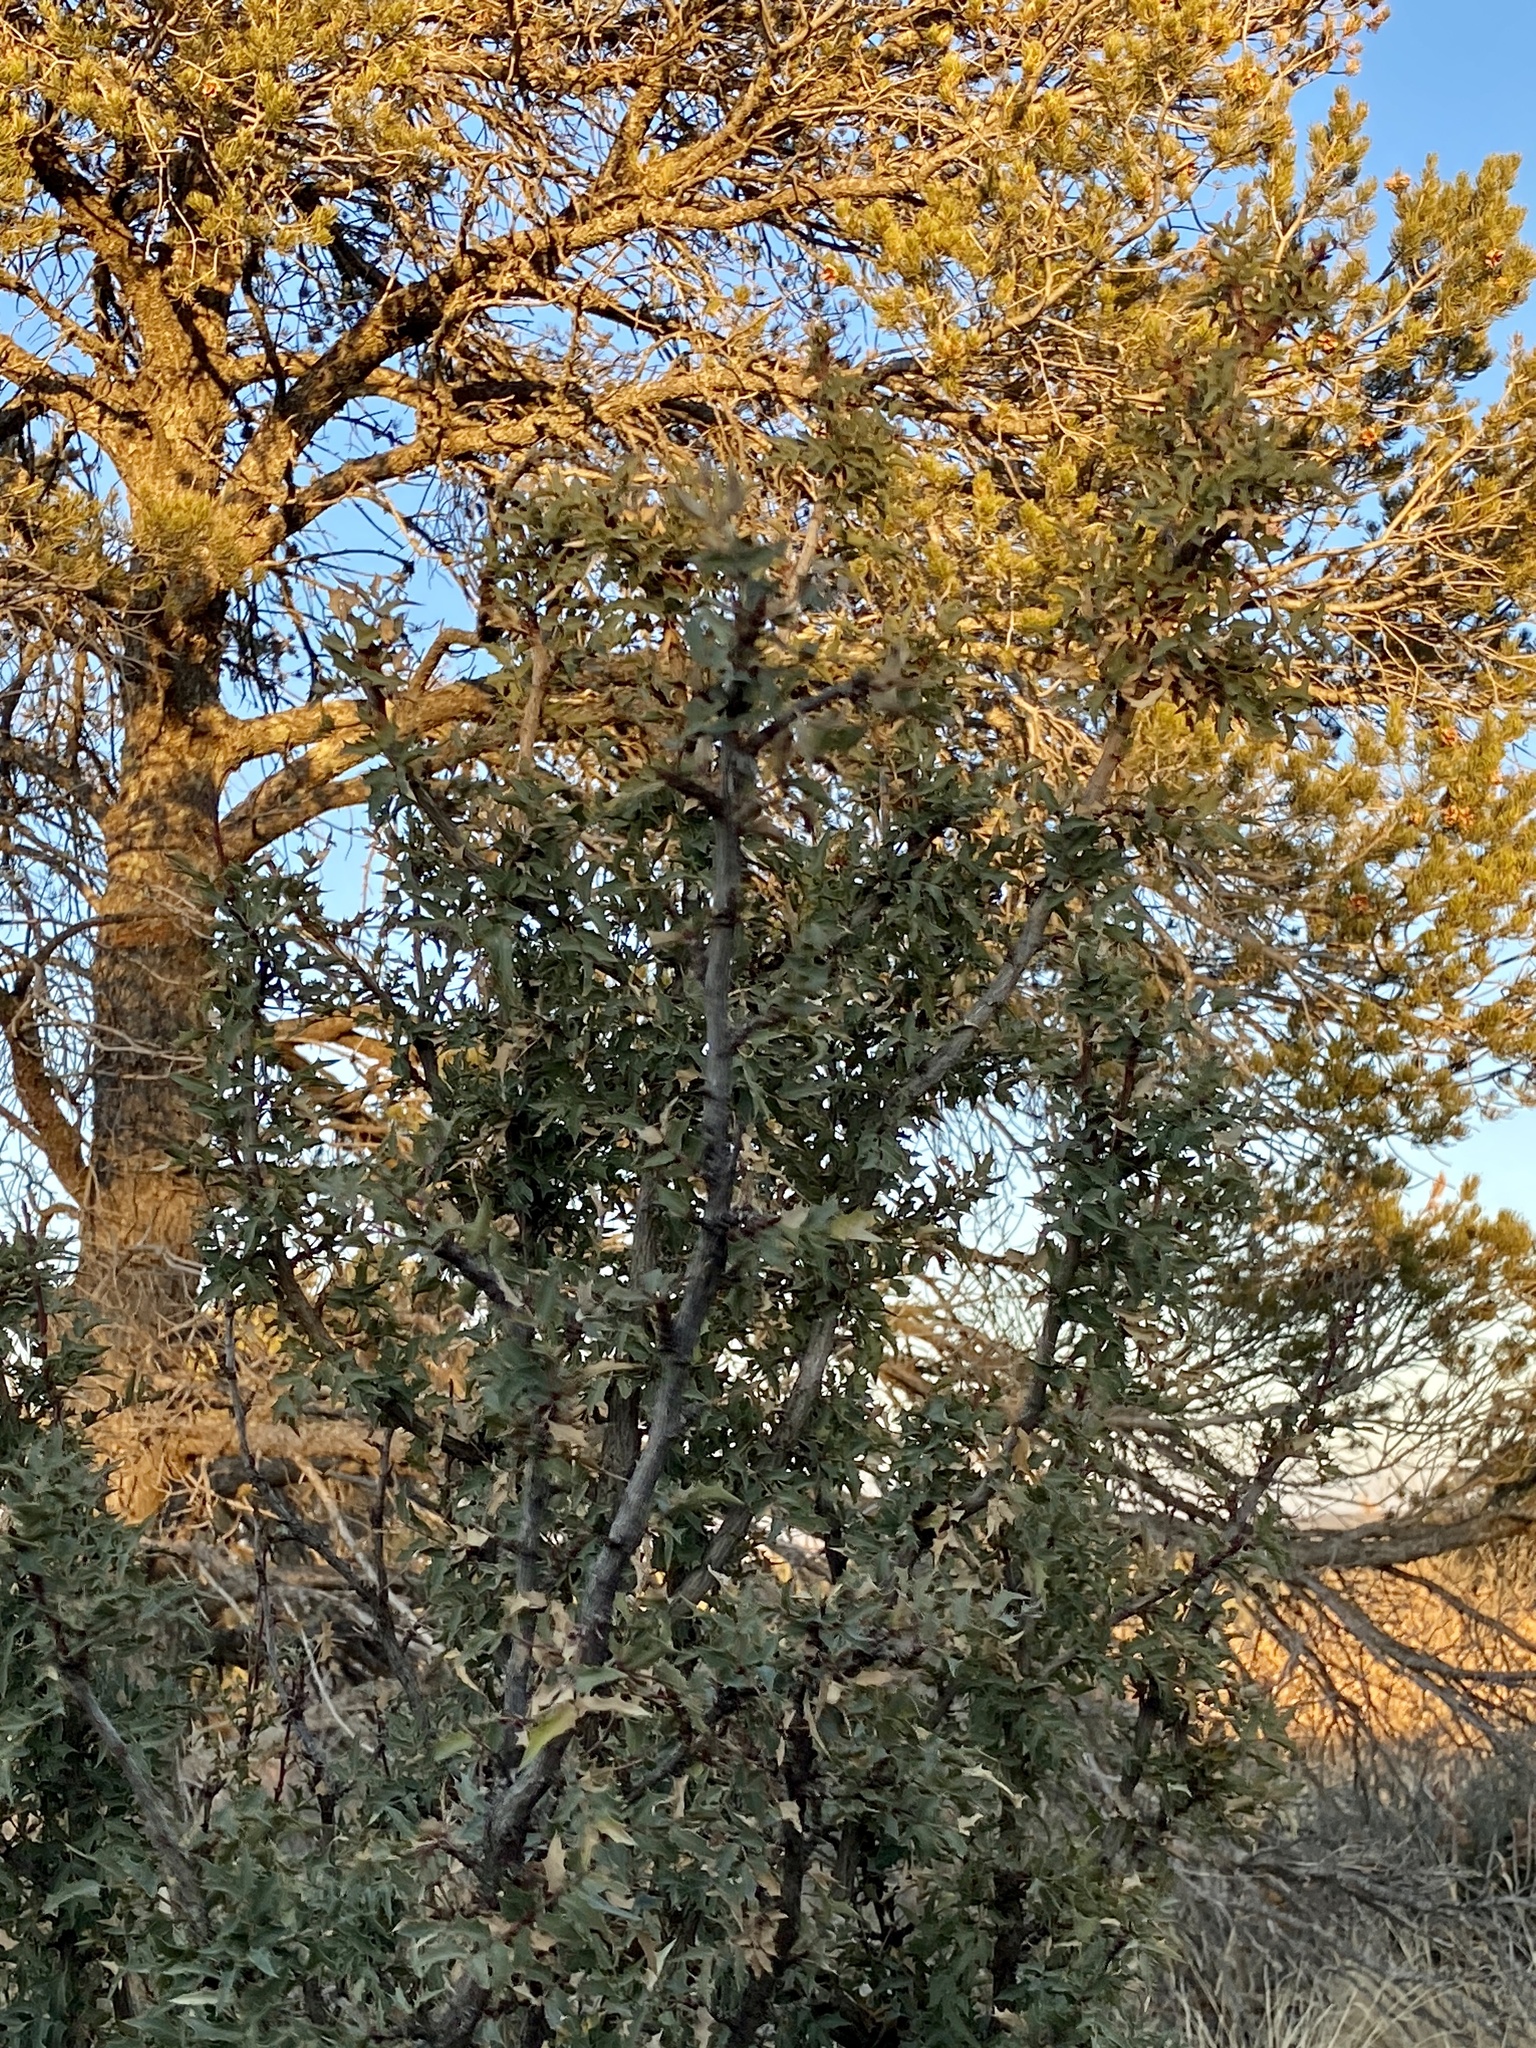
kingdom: Plantae
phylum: Tracheophyta
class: Magnoliopsida
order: Ranunculales
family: Berberidaceae
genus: Alloberberis
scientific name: Alloberberis haematocarpa
